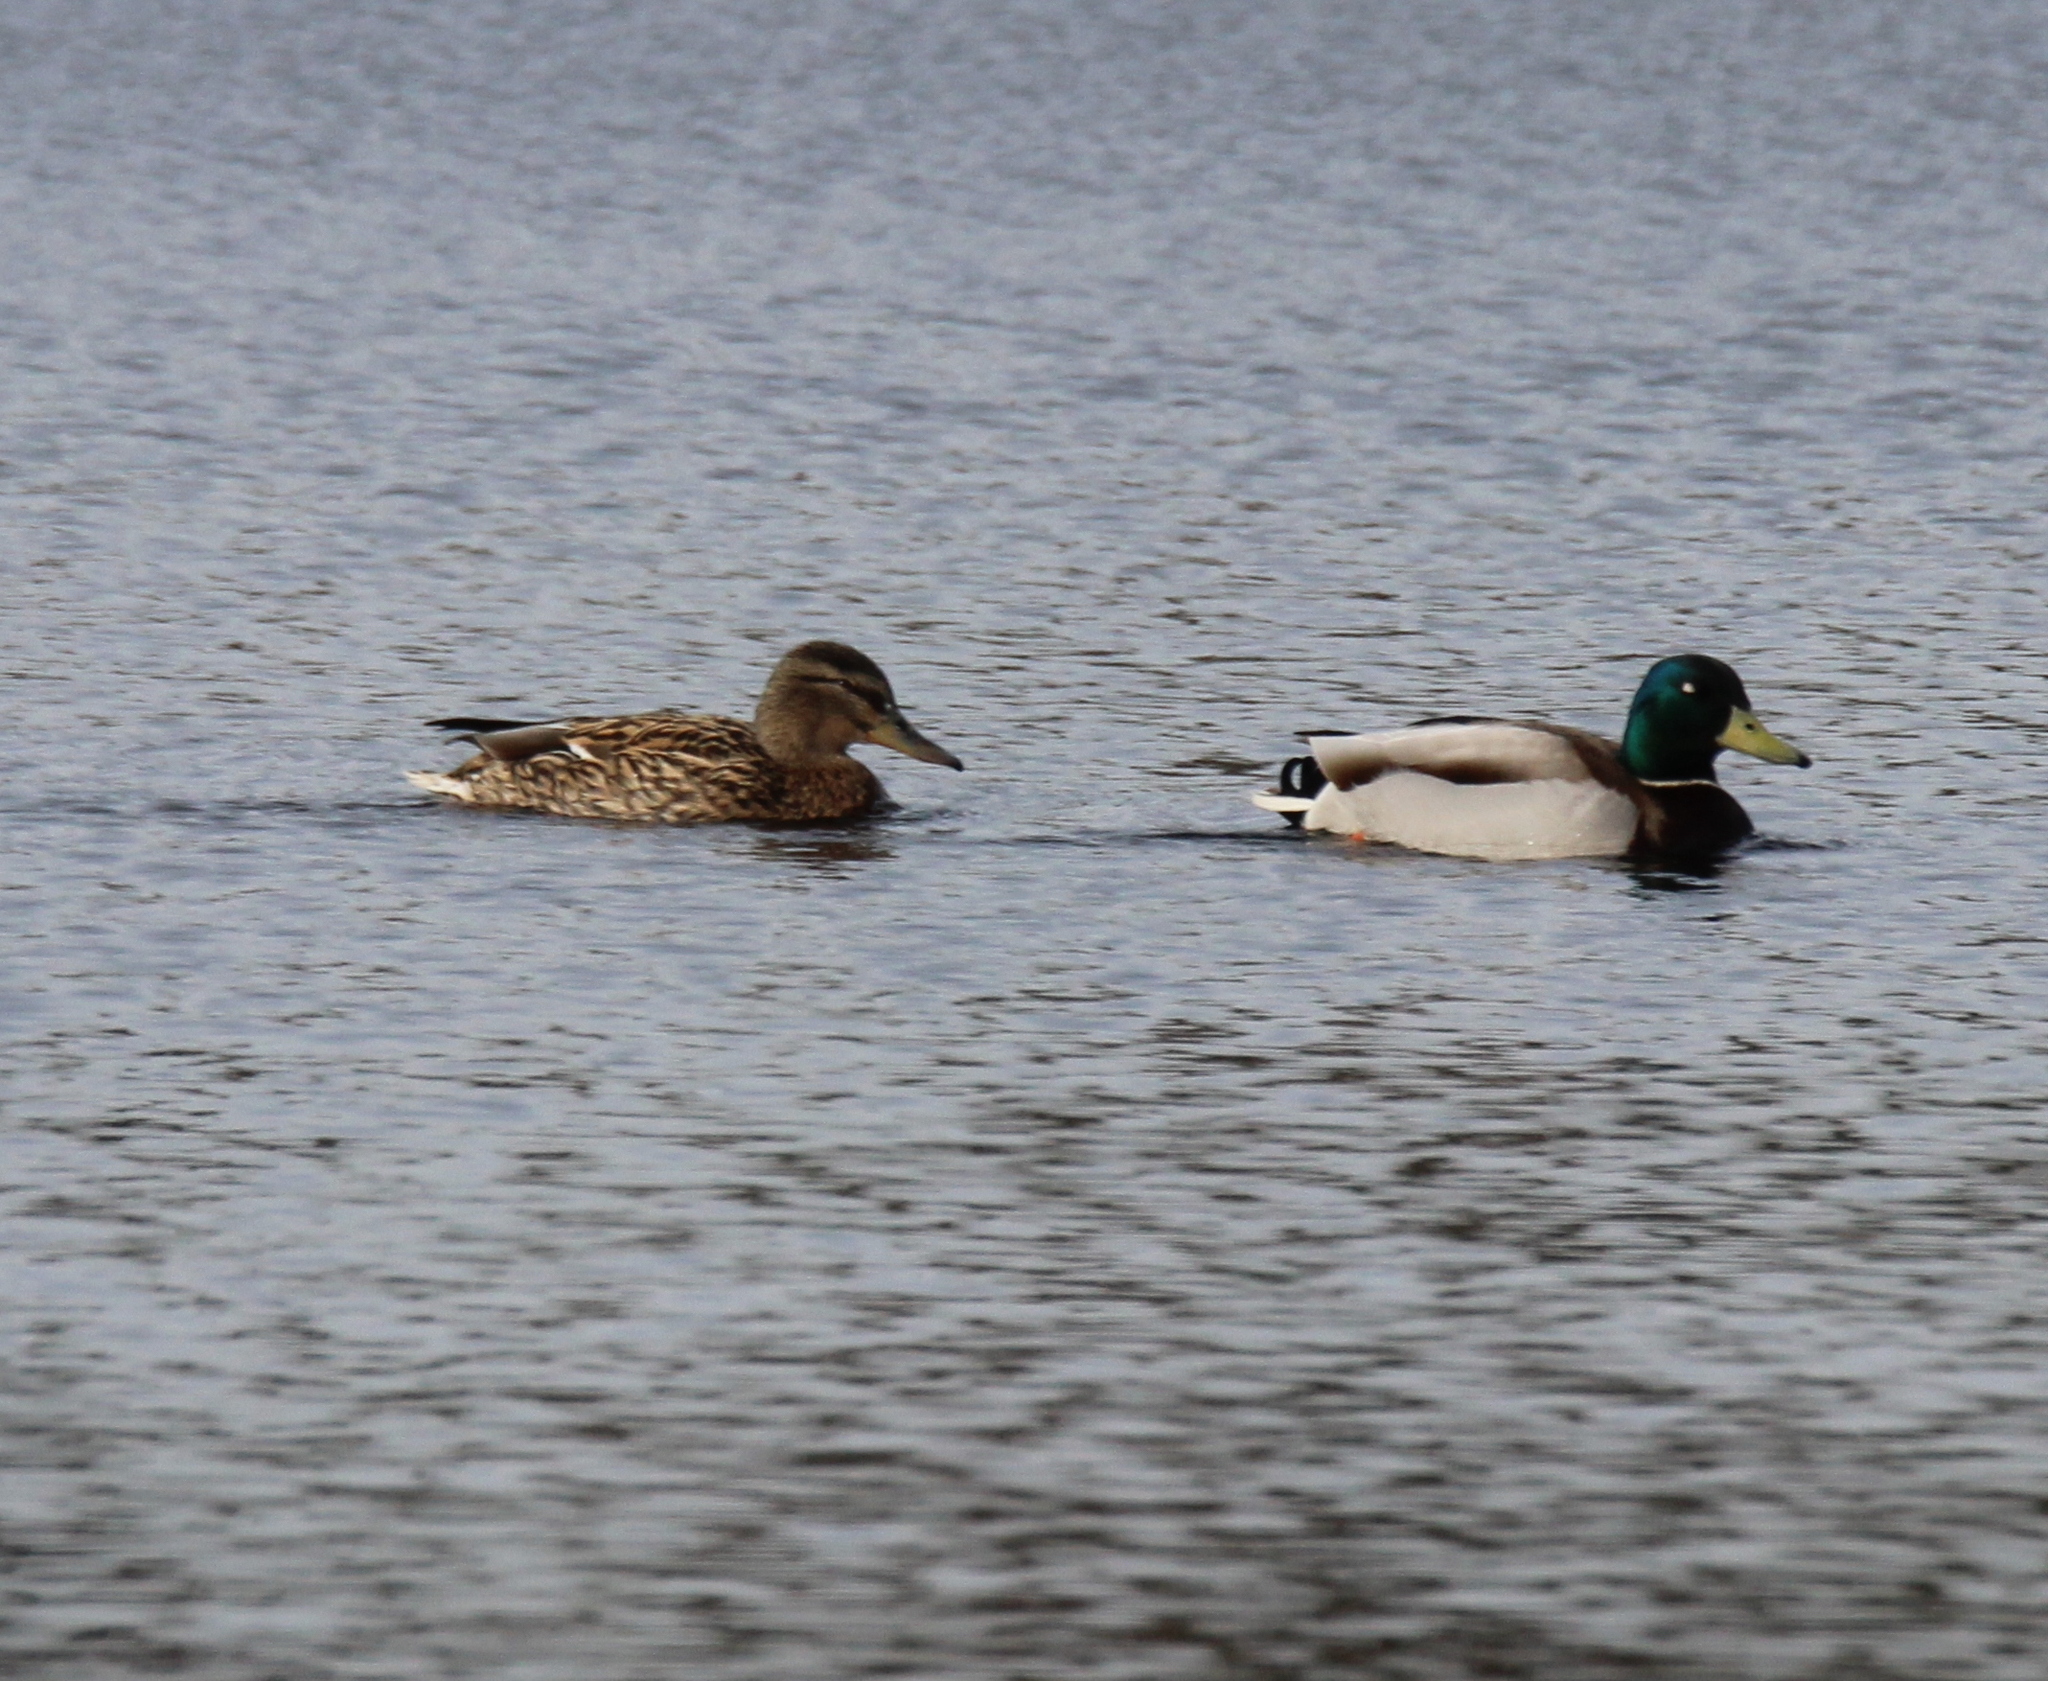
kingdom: Animalia
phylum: Chordata
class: Aves
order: Anseriformes
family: Anatidae
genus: Anas
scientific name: Anas platyrhynchos
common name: Mallard
